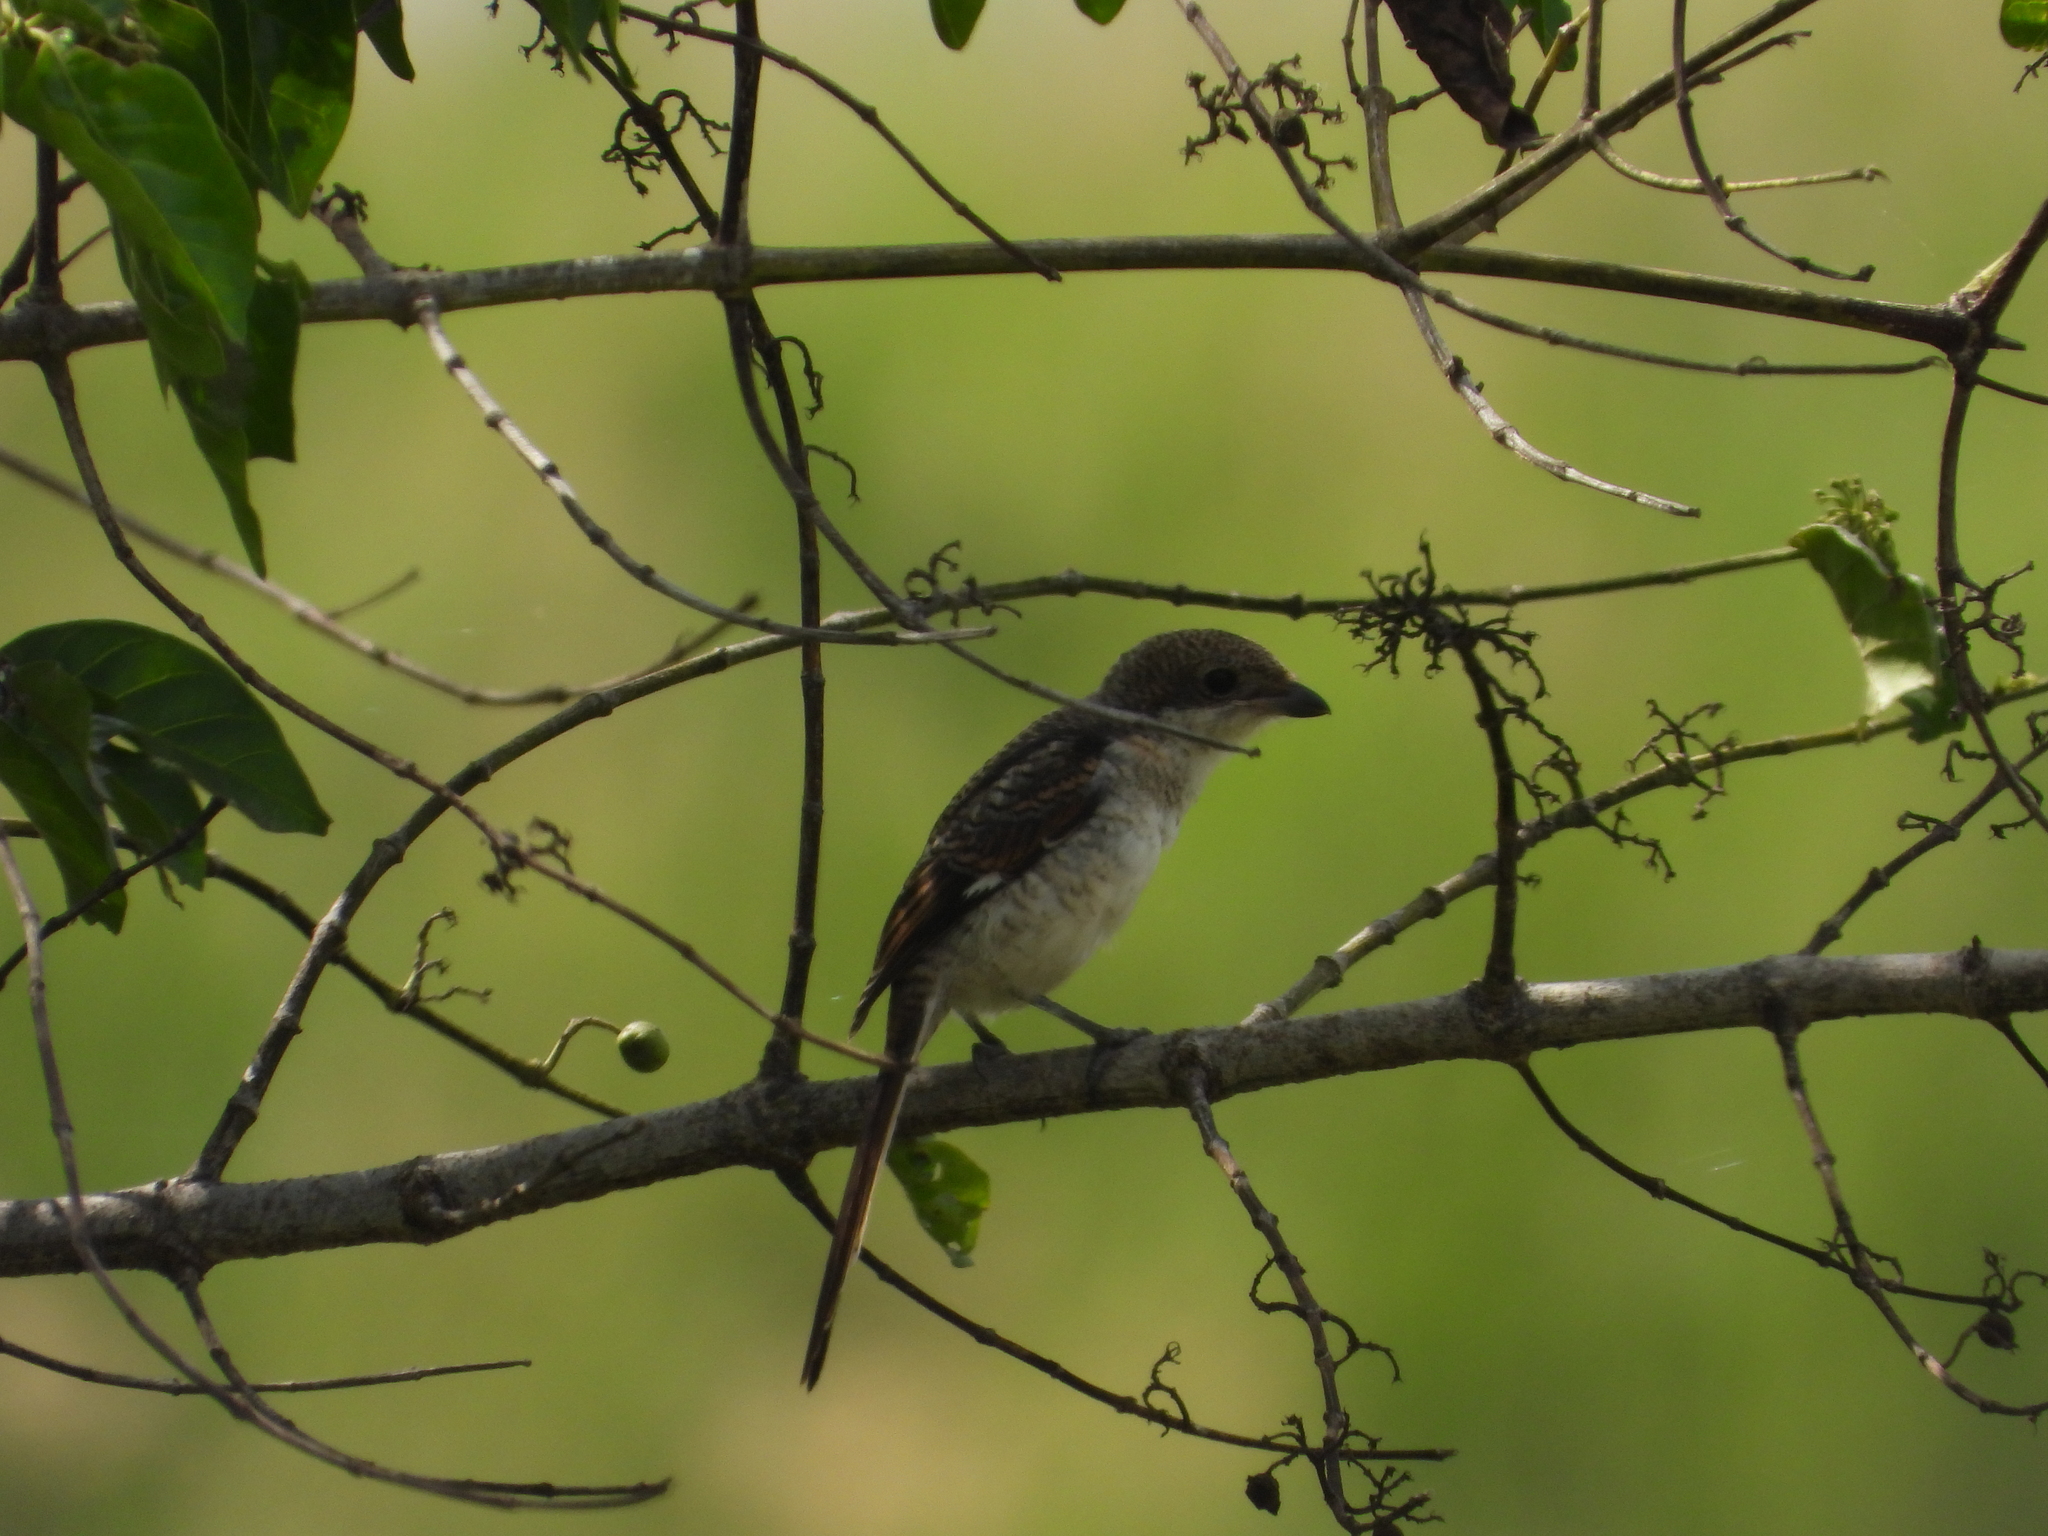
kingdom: Animalia
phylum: Chordata
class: Aves
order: Passeriformes
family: Laniidae
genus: Lanius
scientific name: Lanius humeralis
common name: Northern fiscal
